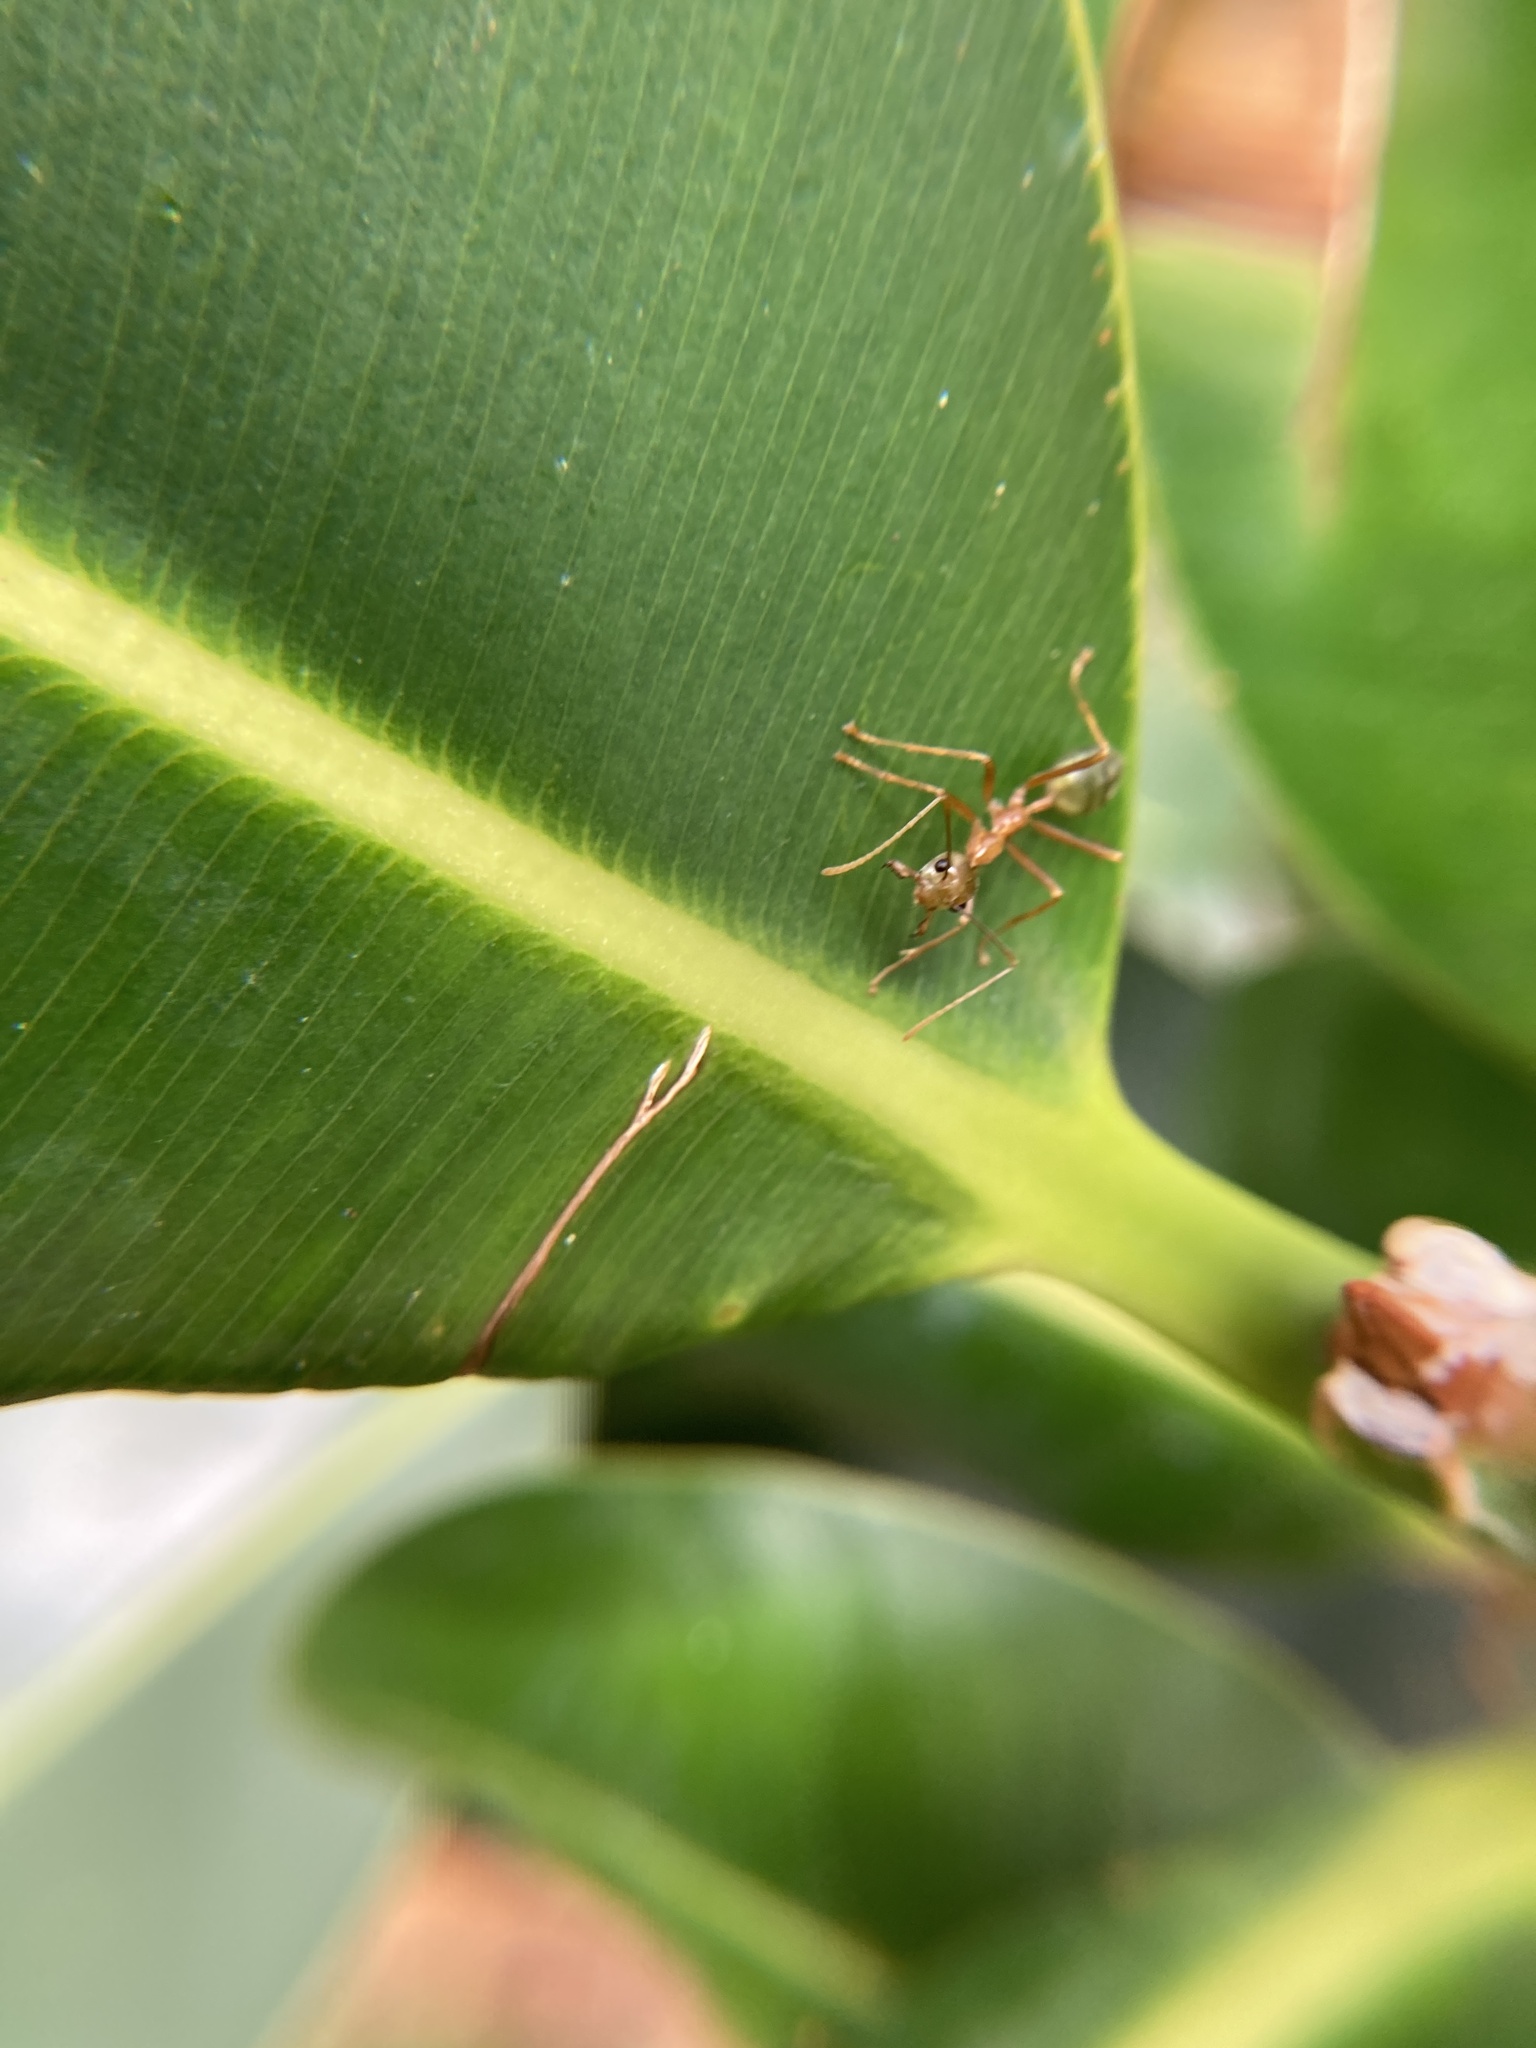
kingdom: Animalia
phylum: Arthropoda
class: Insecta
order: Hymenoptera
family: Formicidae
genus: Oecophylla
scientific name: Oecophylla smaragdina
